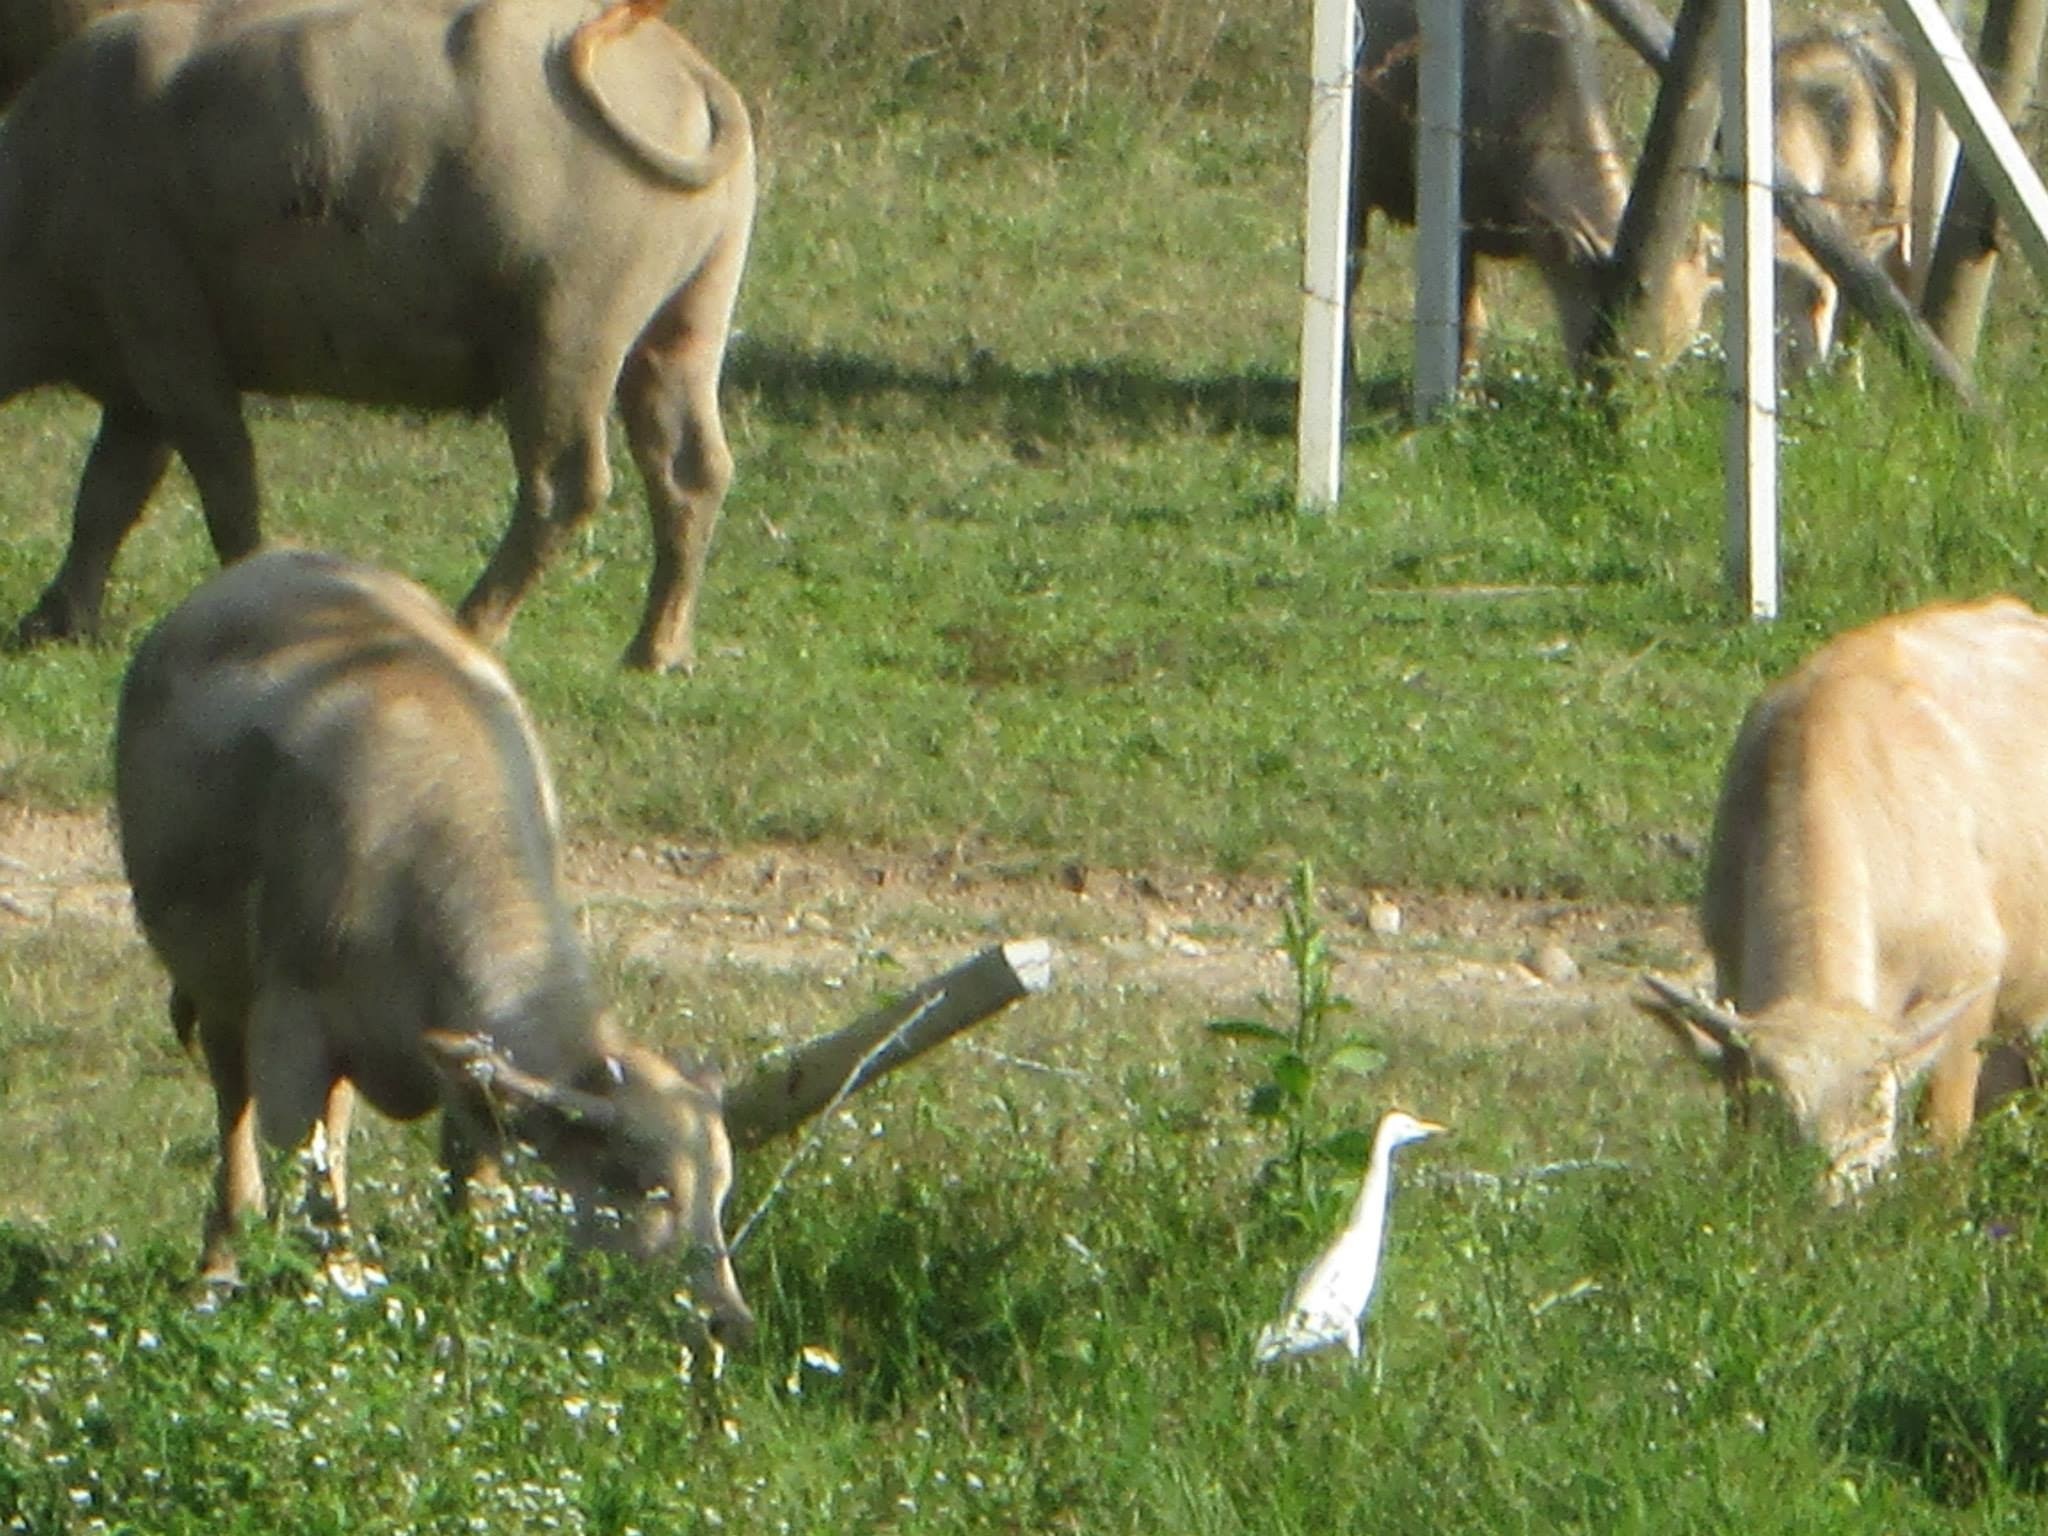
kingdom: Animalia
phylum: Chordata
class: Aves
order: Pelecaniformes
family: Ardeidae
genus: Bubulcus
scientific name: Bubulcus coromandus
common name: Eastern cattle egret
